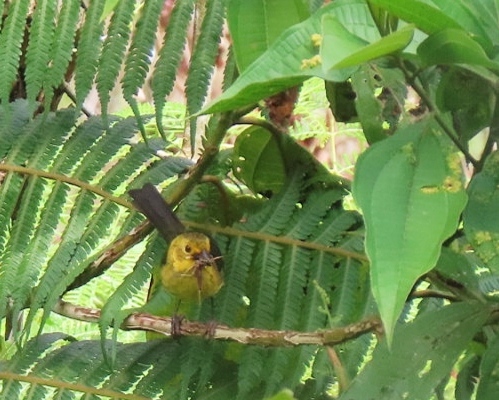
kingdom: Animalia
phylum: Chordata
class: Aves
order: Passeriformes
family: Passerellidae
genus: Atlapetes
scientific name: Atlapetes flaviceps
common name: Yellow-headed brush-finch
